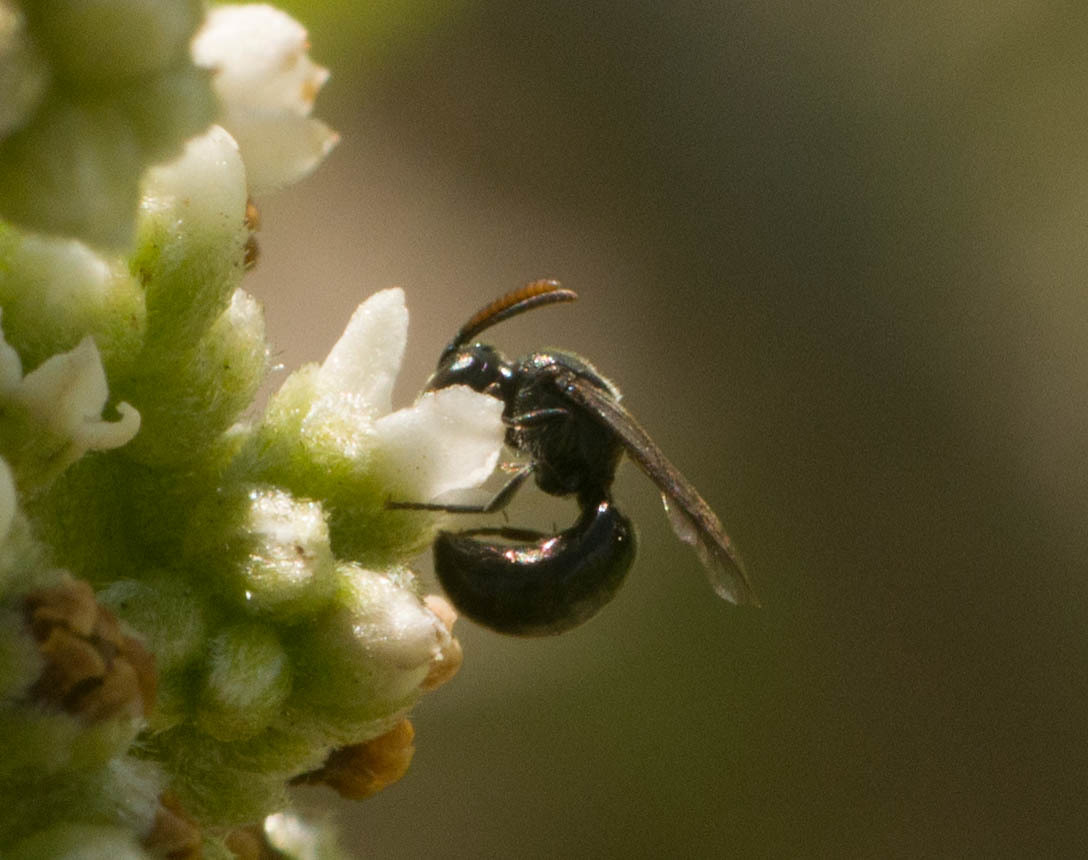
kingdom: Animalia
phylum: Arthropoda
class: Insecta
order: Hymenoptera
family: Colletidae
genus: Hylaeus
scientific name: Hylaeus anthracinus
